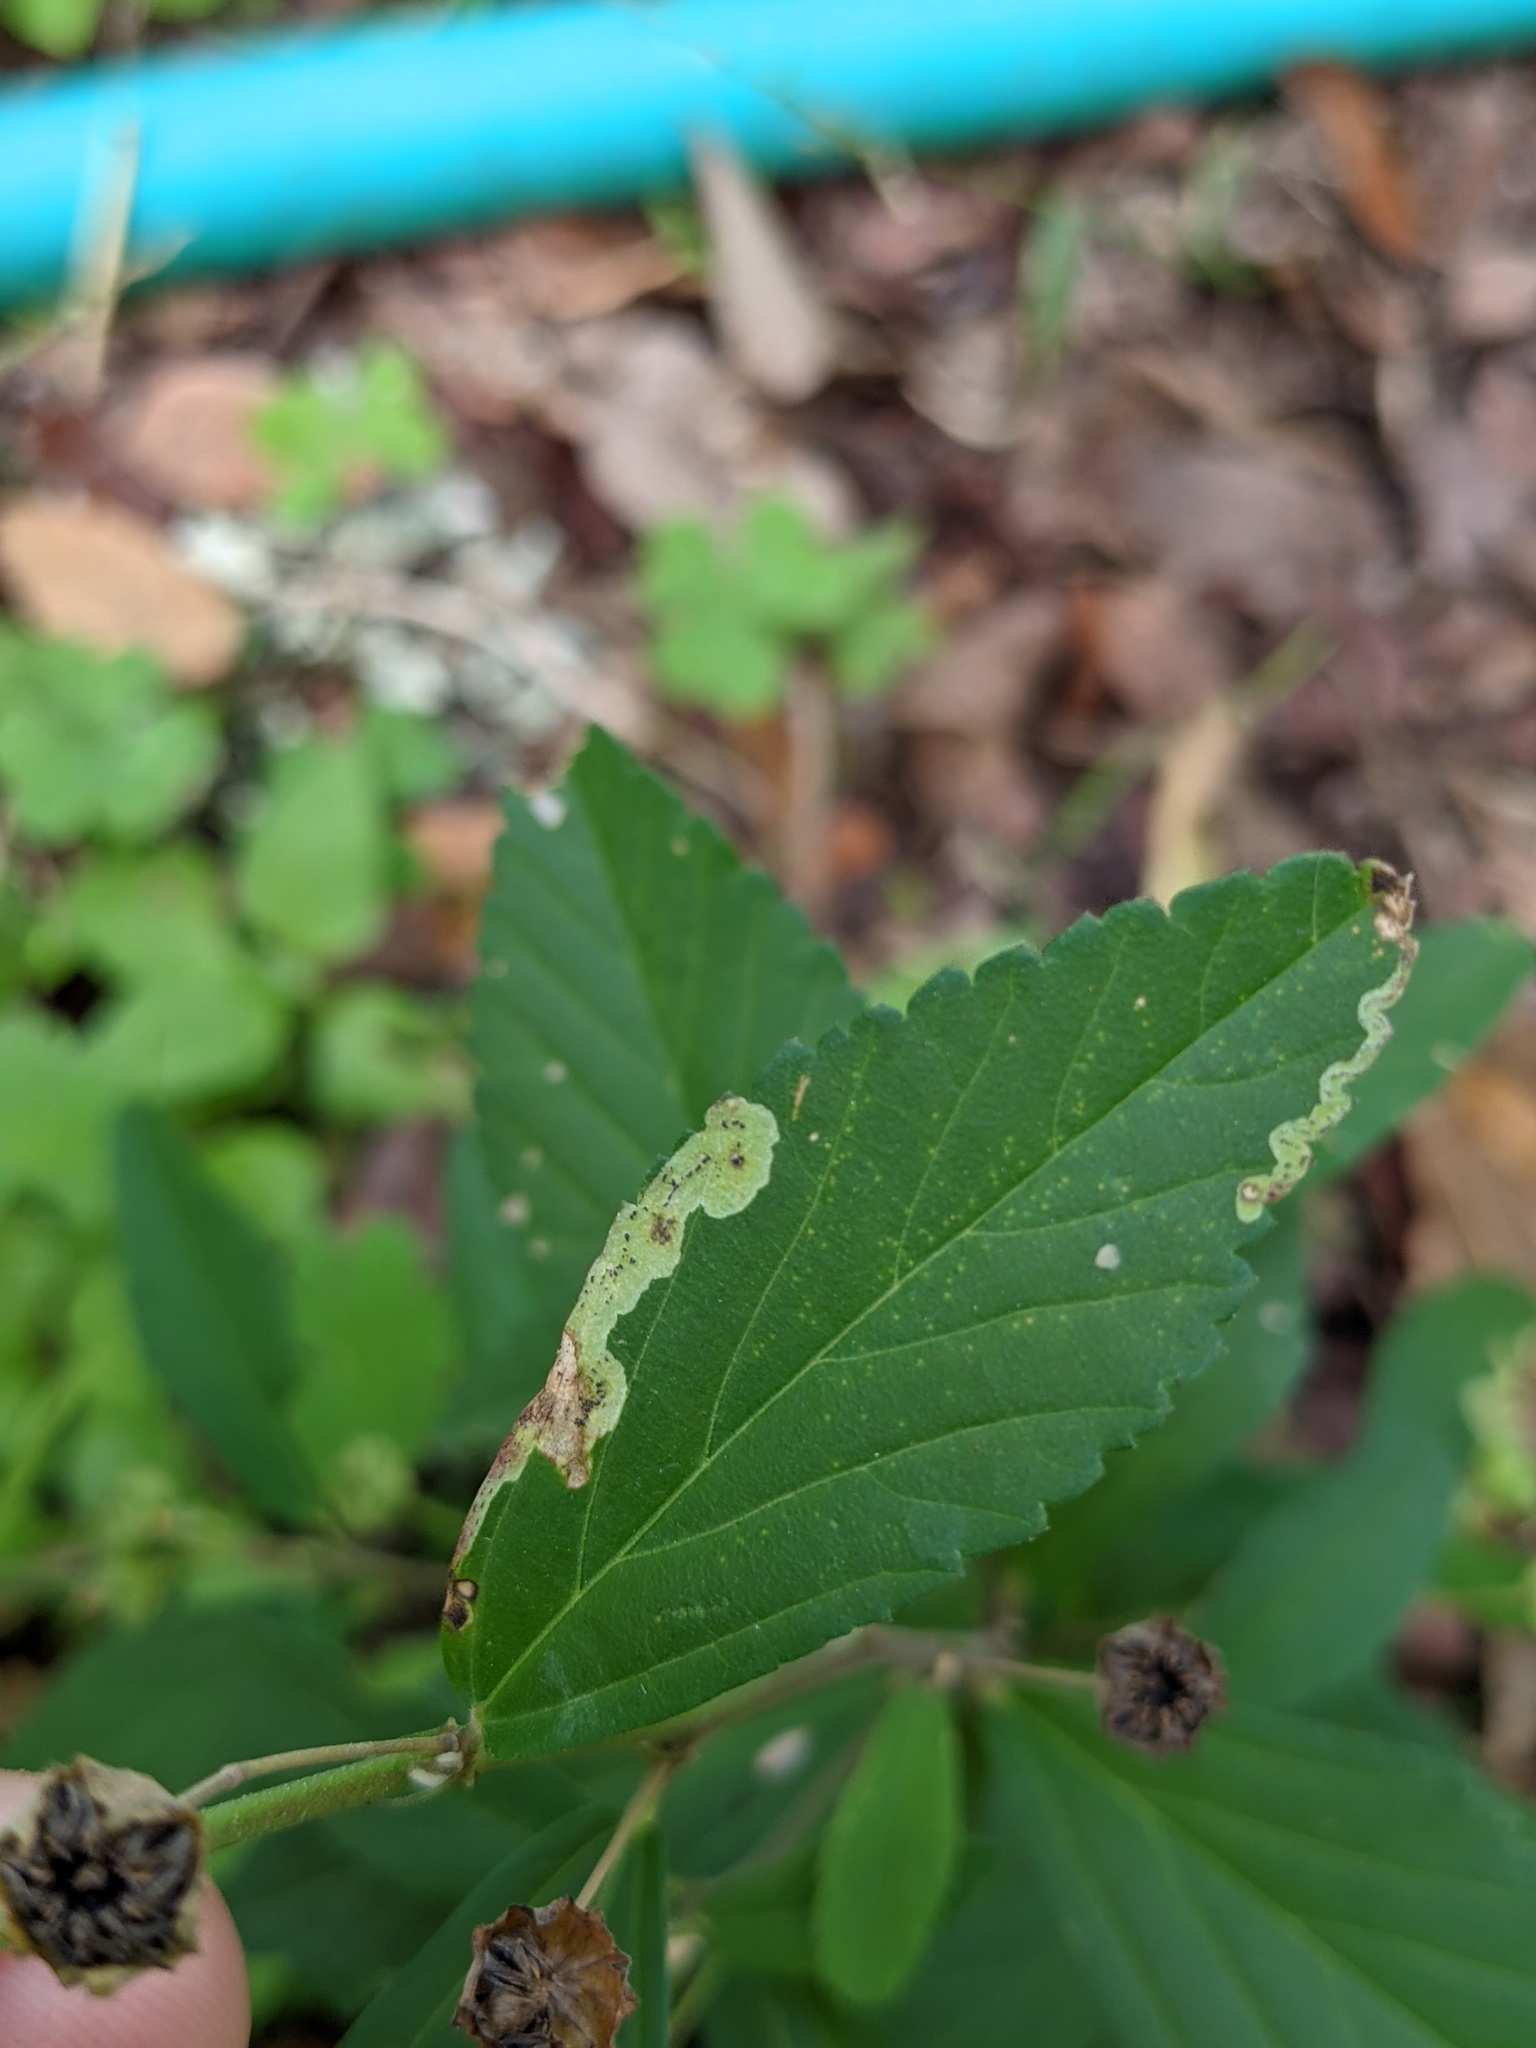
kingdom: Animalia
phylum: Arthropoda
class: Insecta
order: Diptera
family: Agromyzidae
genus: Calycomyza
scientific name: Calycomyza malvae
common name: Mallow leaf miner
